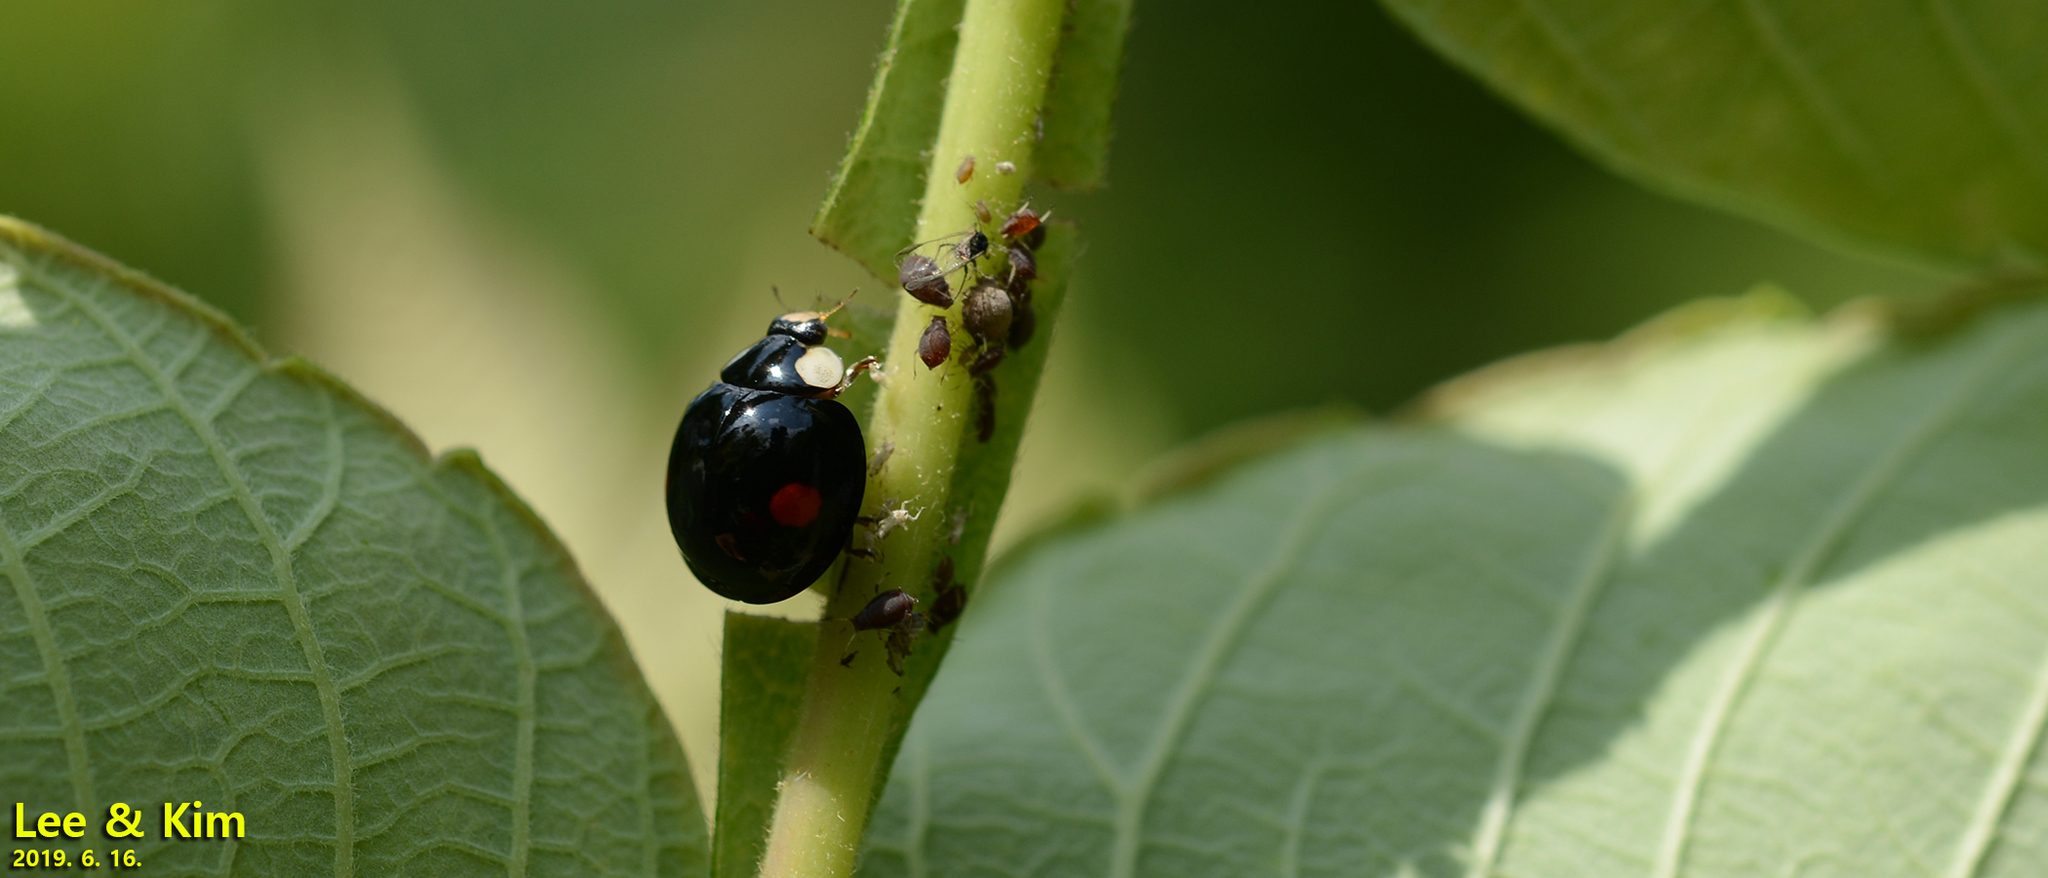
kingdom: Animalia
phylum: Arthropoda
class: Insecta
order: Coleoptera
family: Coccinellidae
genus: Coelophora
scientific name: Coelophora saucia
